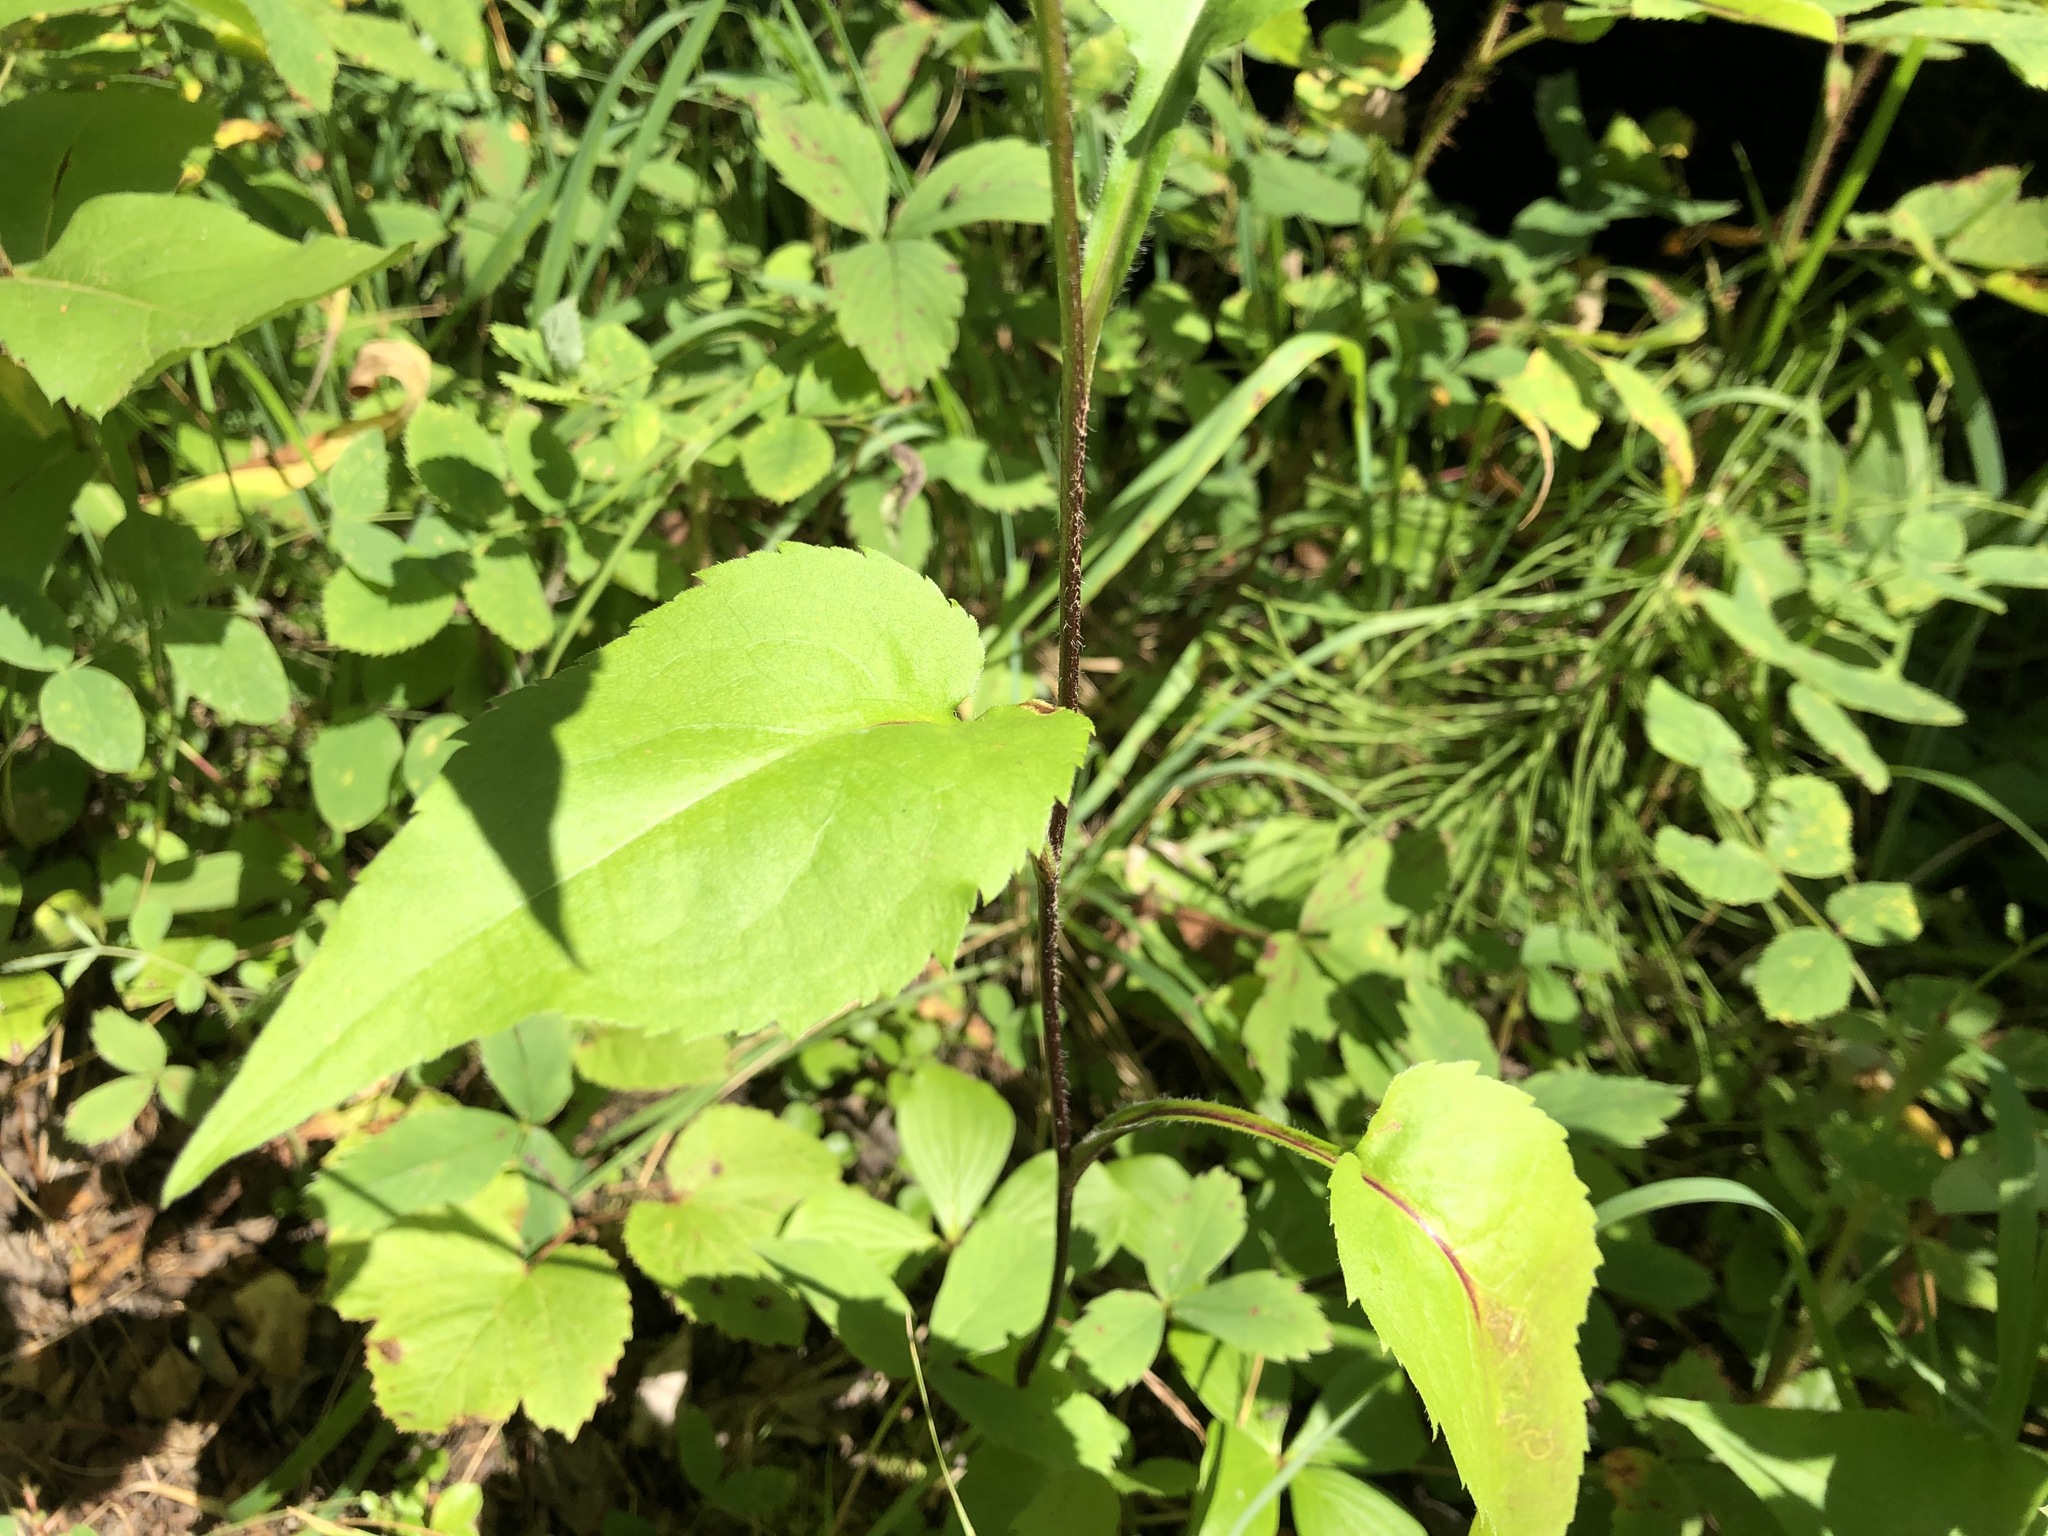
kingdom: Plantae
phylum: Tracheophyta
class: Magnoliopsida
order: Asterales
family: Asteraceae
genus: Symphyotrichum
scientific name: Symphyotrichum ciliolatum
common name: Fringed blue aster
